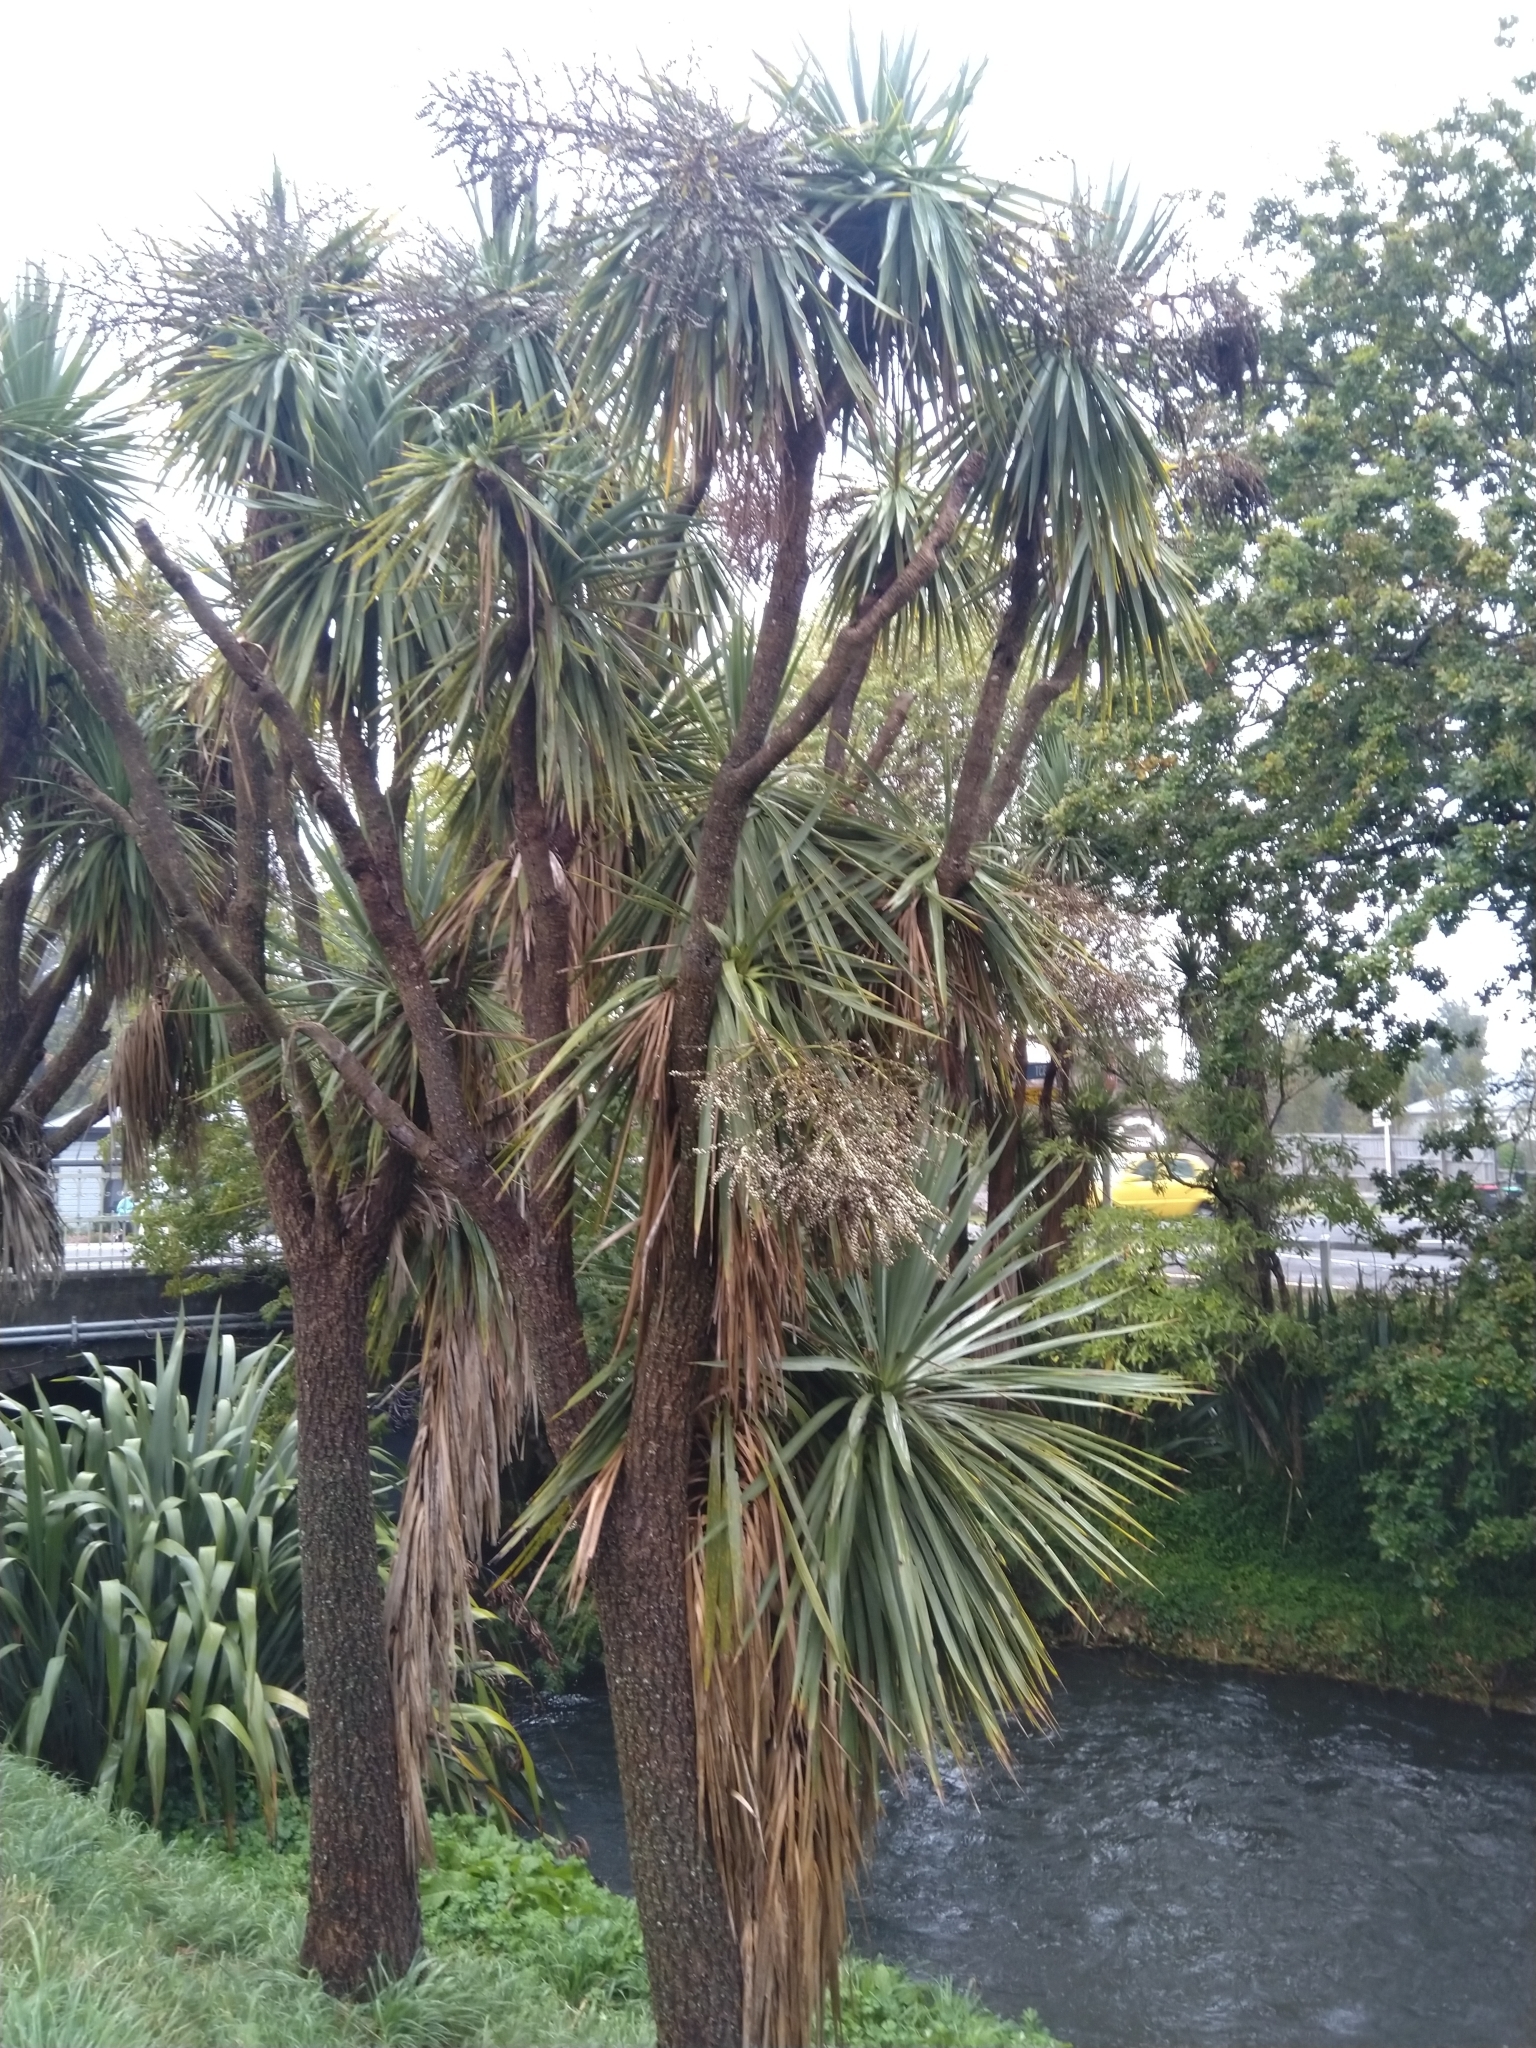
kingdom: Plantae
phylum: Tracheophyta
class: Liliopsida
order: Asparagales
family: Asparagaceae
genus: Cordyline
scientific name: Cordyline australis
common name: Cabbage-palm
